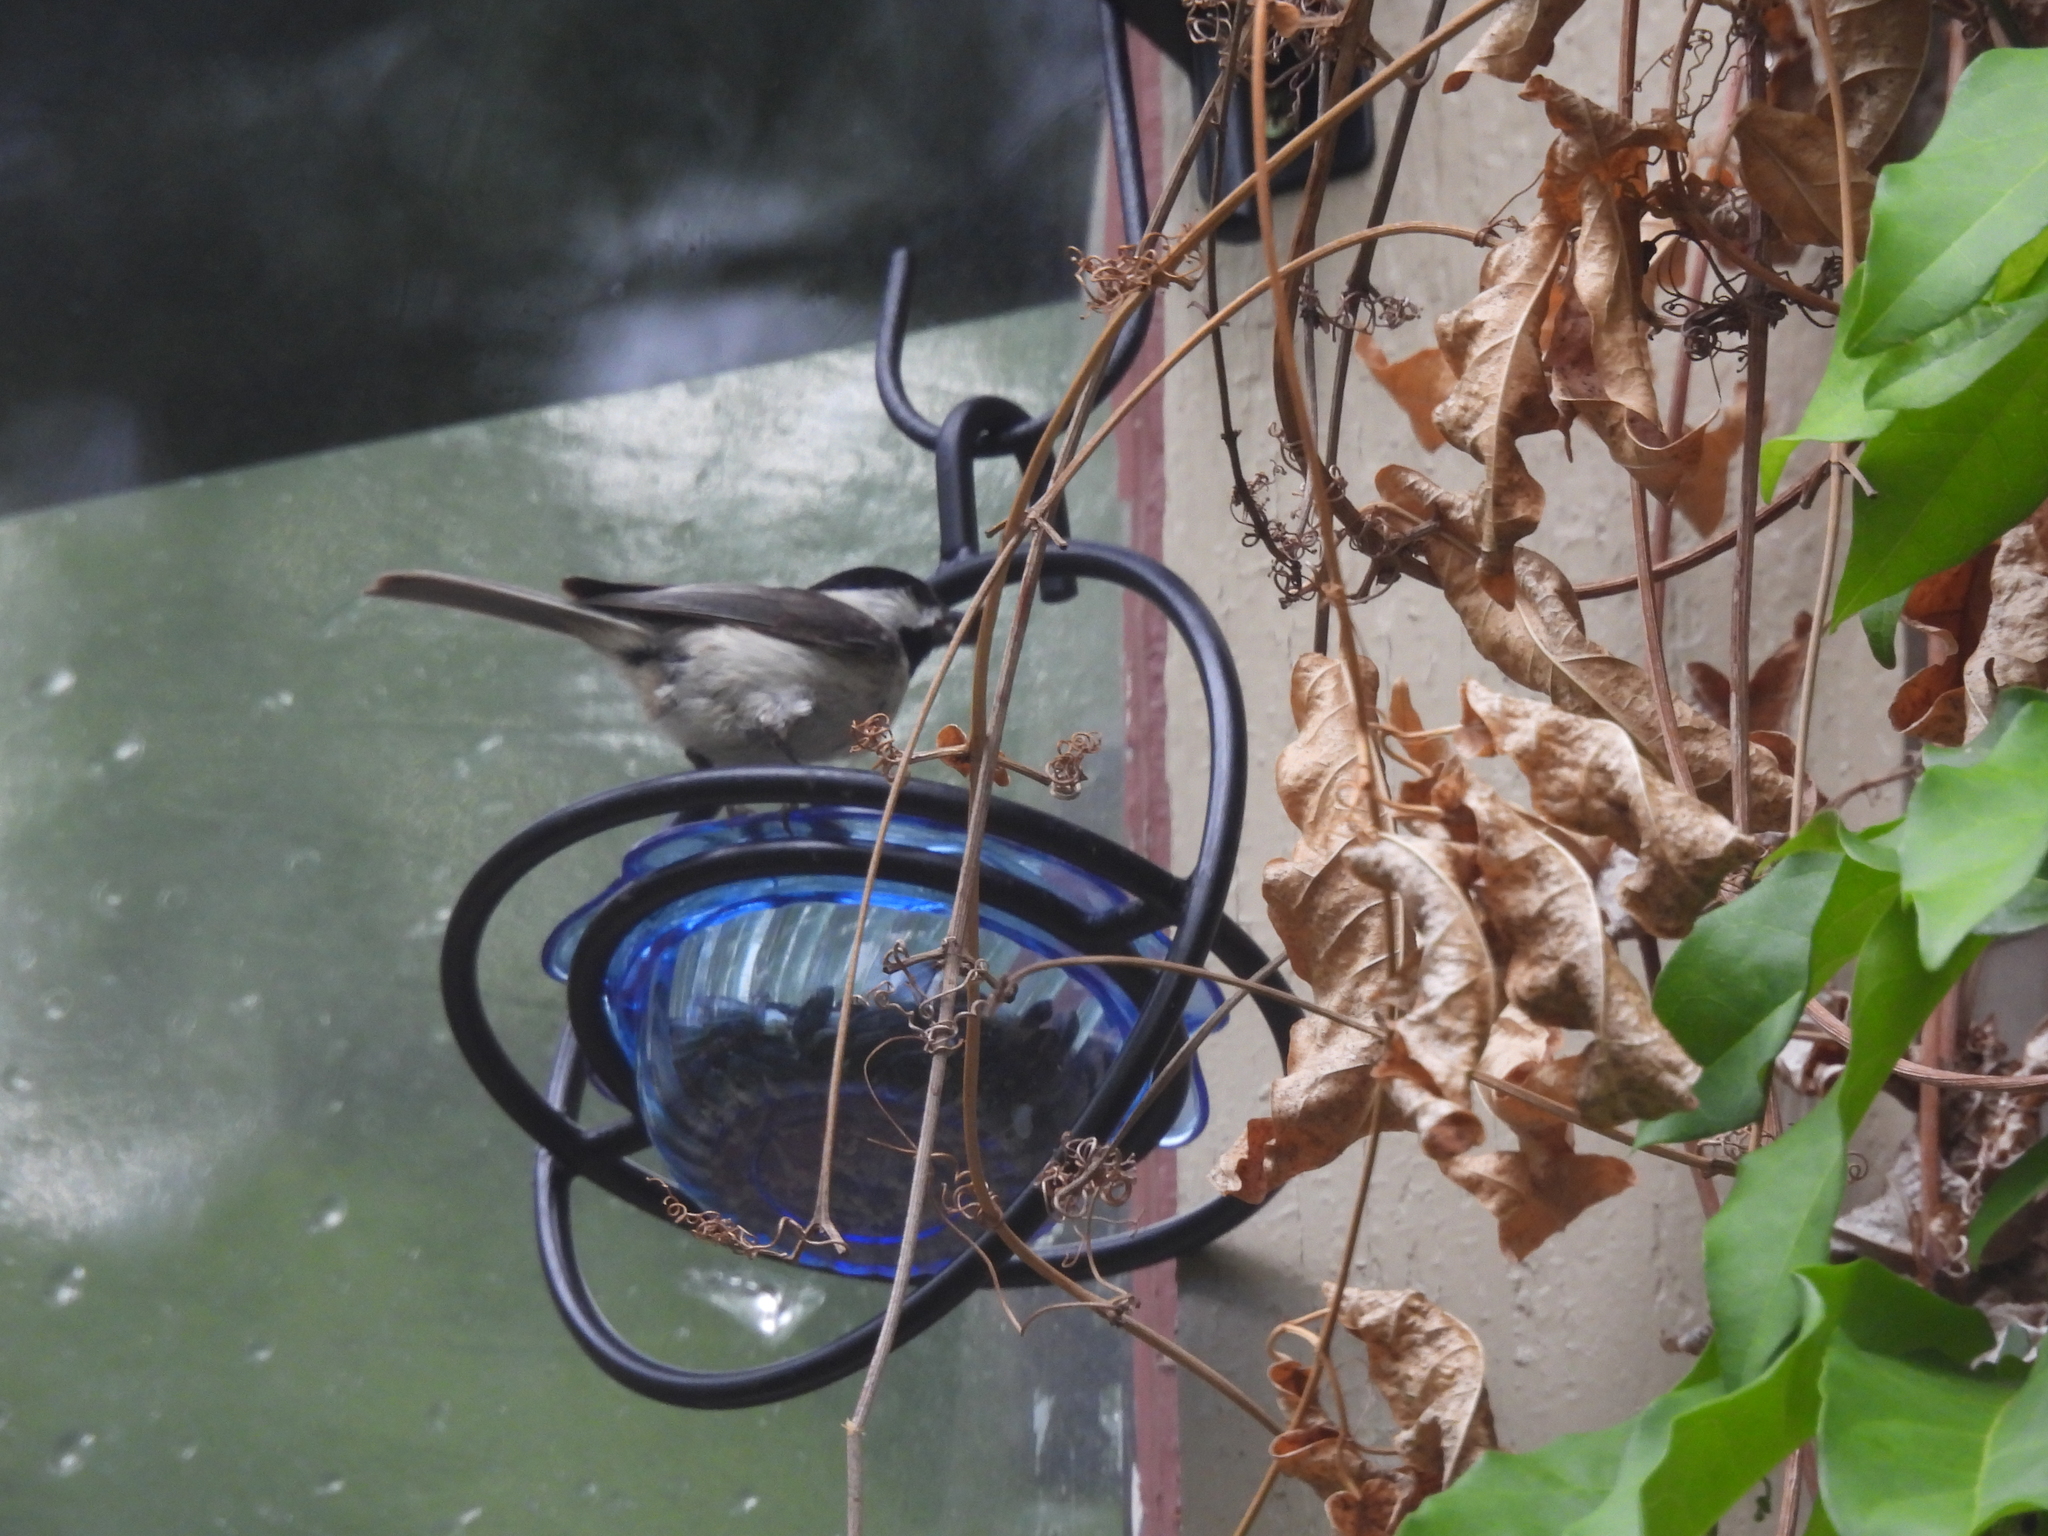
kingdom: Animalia
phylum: Chordata
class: Aves
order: Passeriformes
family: Paridae
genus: Poecile
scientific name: Poecile carolinensis
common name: Carolina chickadee
